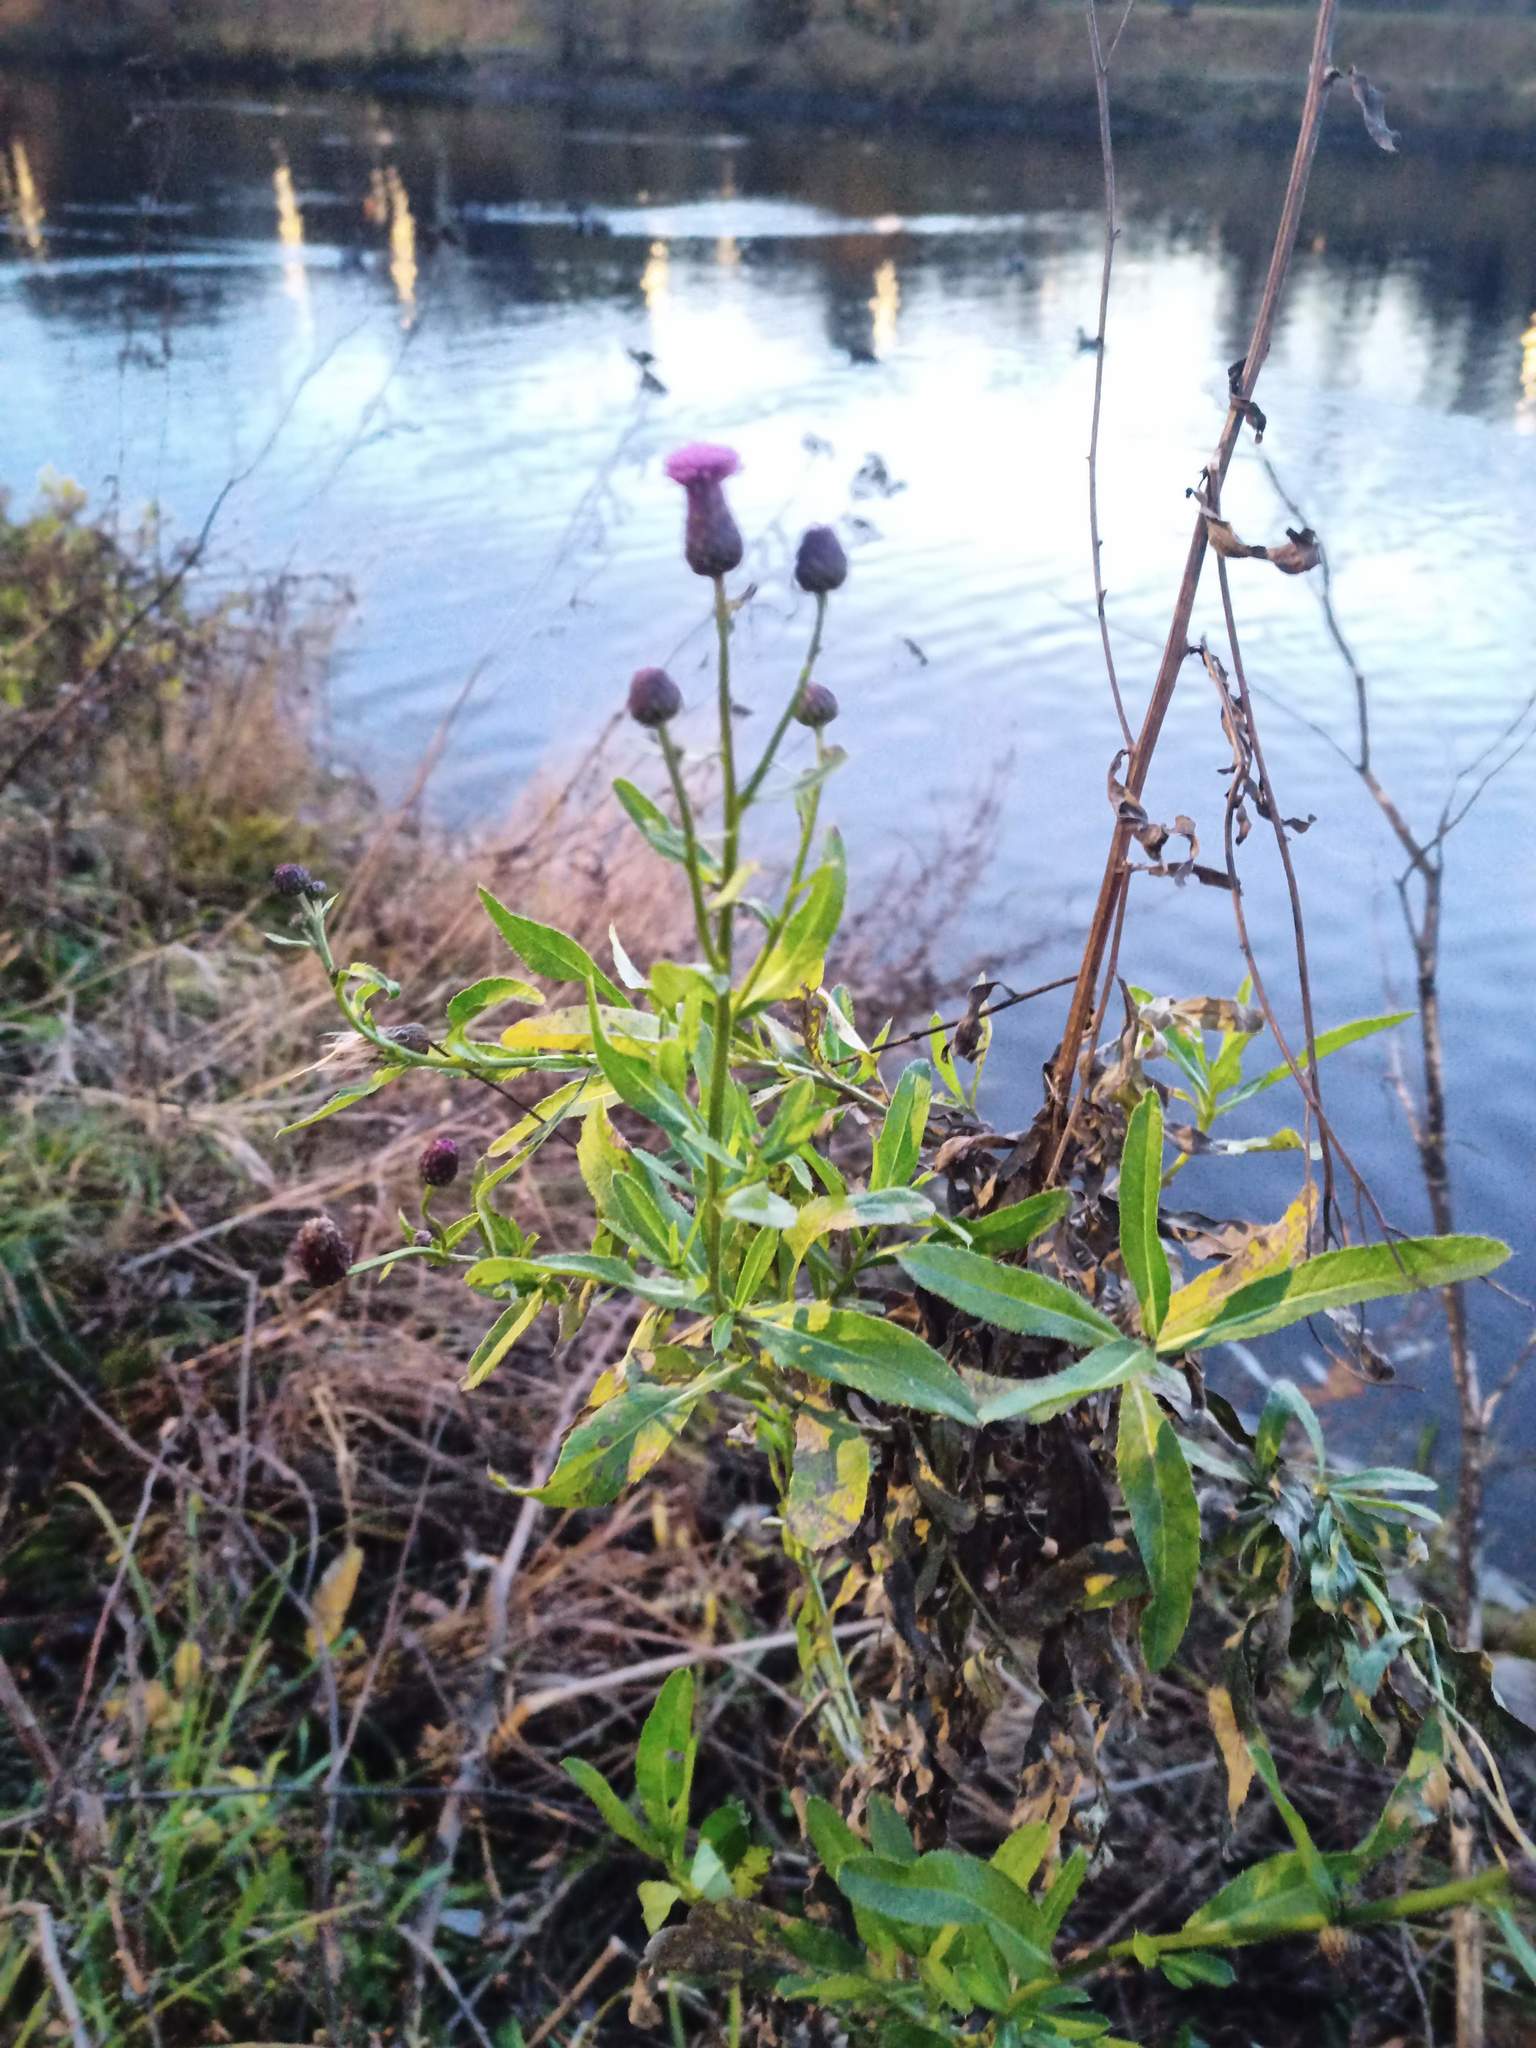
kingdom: Plantae
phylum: Tracheophyta
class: Magnoliopsida
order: Asterales
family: Asteraceae
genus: Cirsium
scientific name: Cirsium arvense
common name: Creeping thistle
